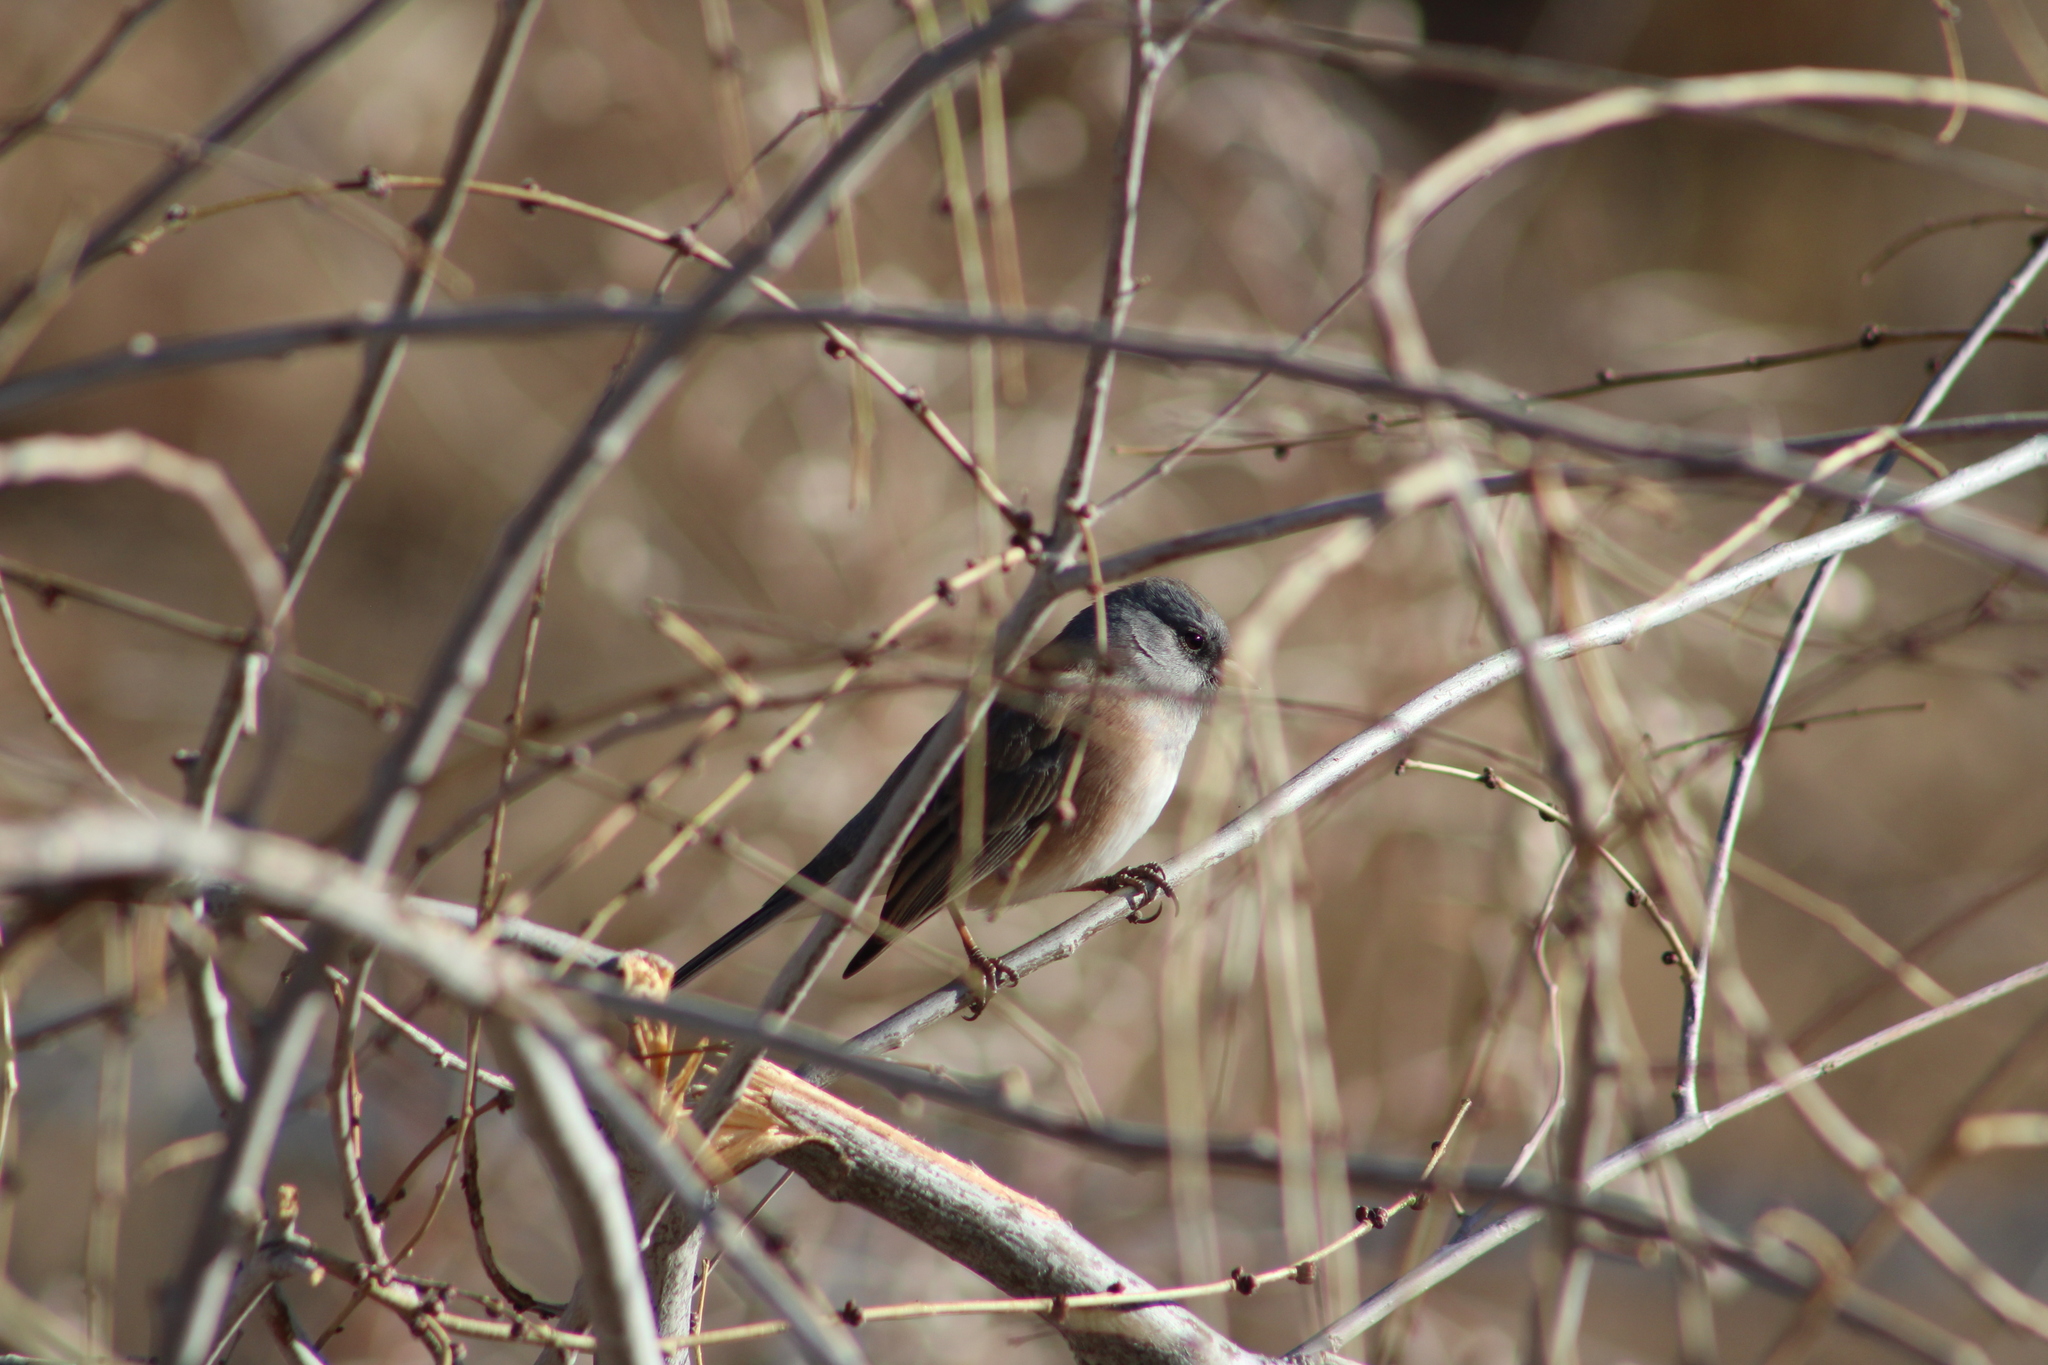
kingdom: Animalia
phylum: Chordata
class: Aves
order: Passeriformes
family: Passerellidae
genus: Junco
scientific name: Junco hyemalis
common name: Dark-eyed junco
